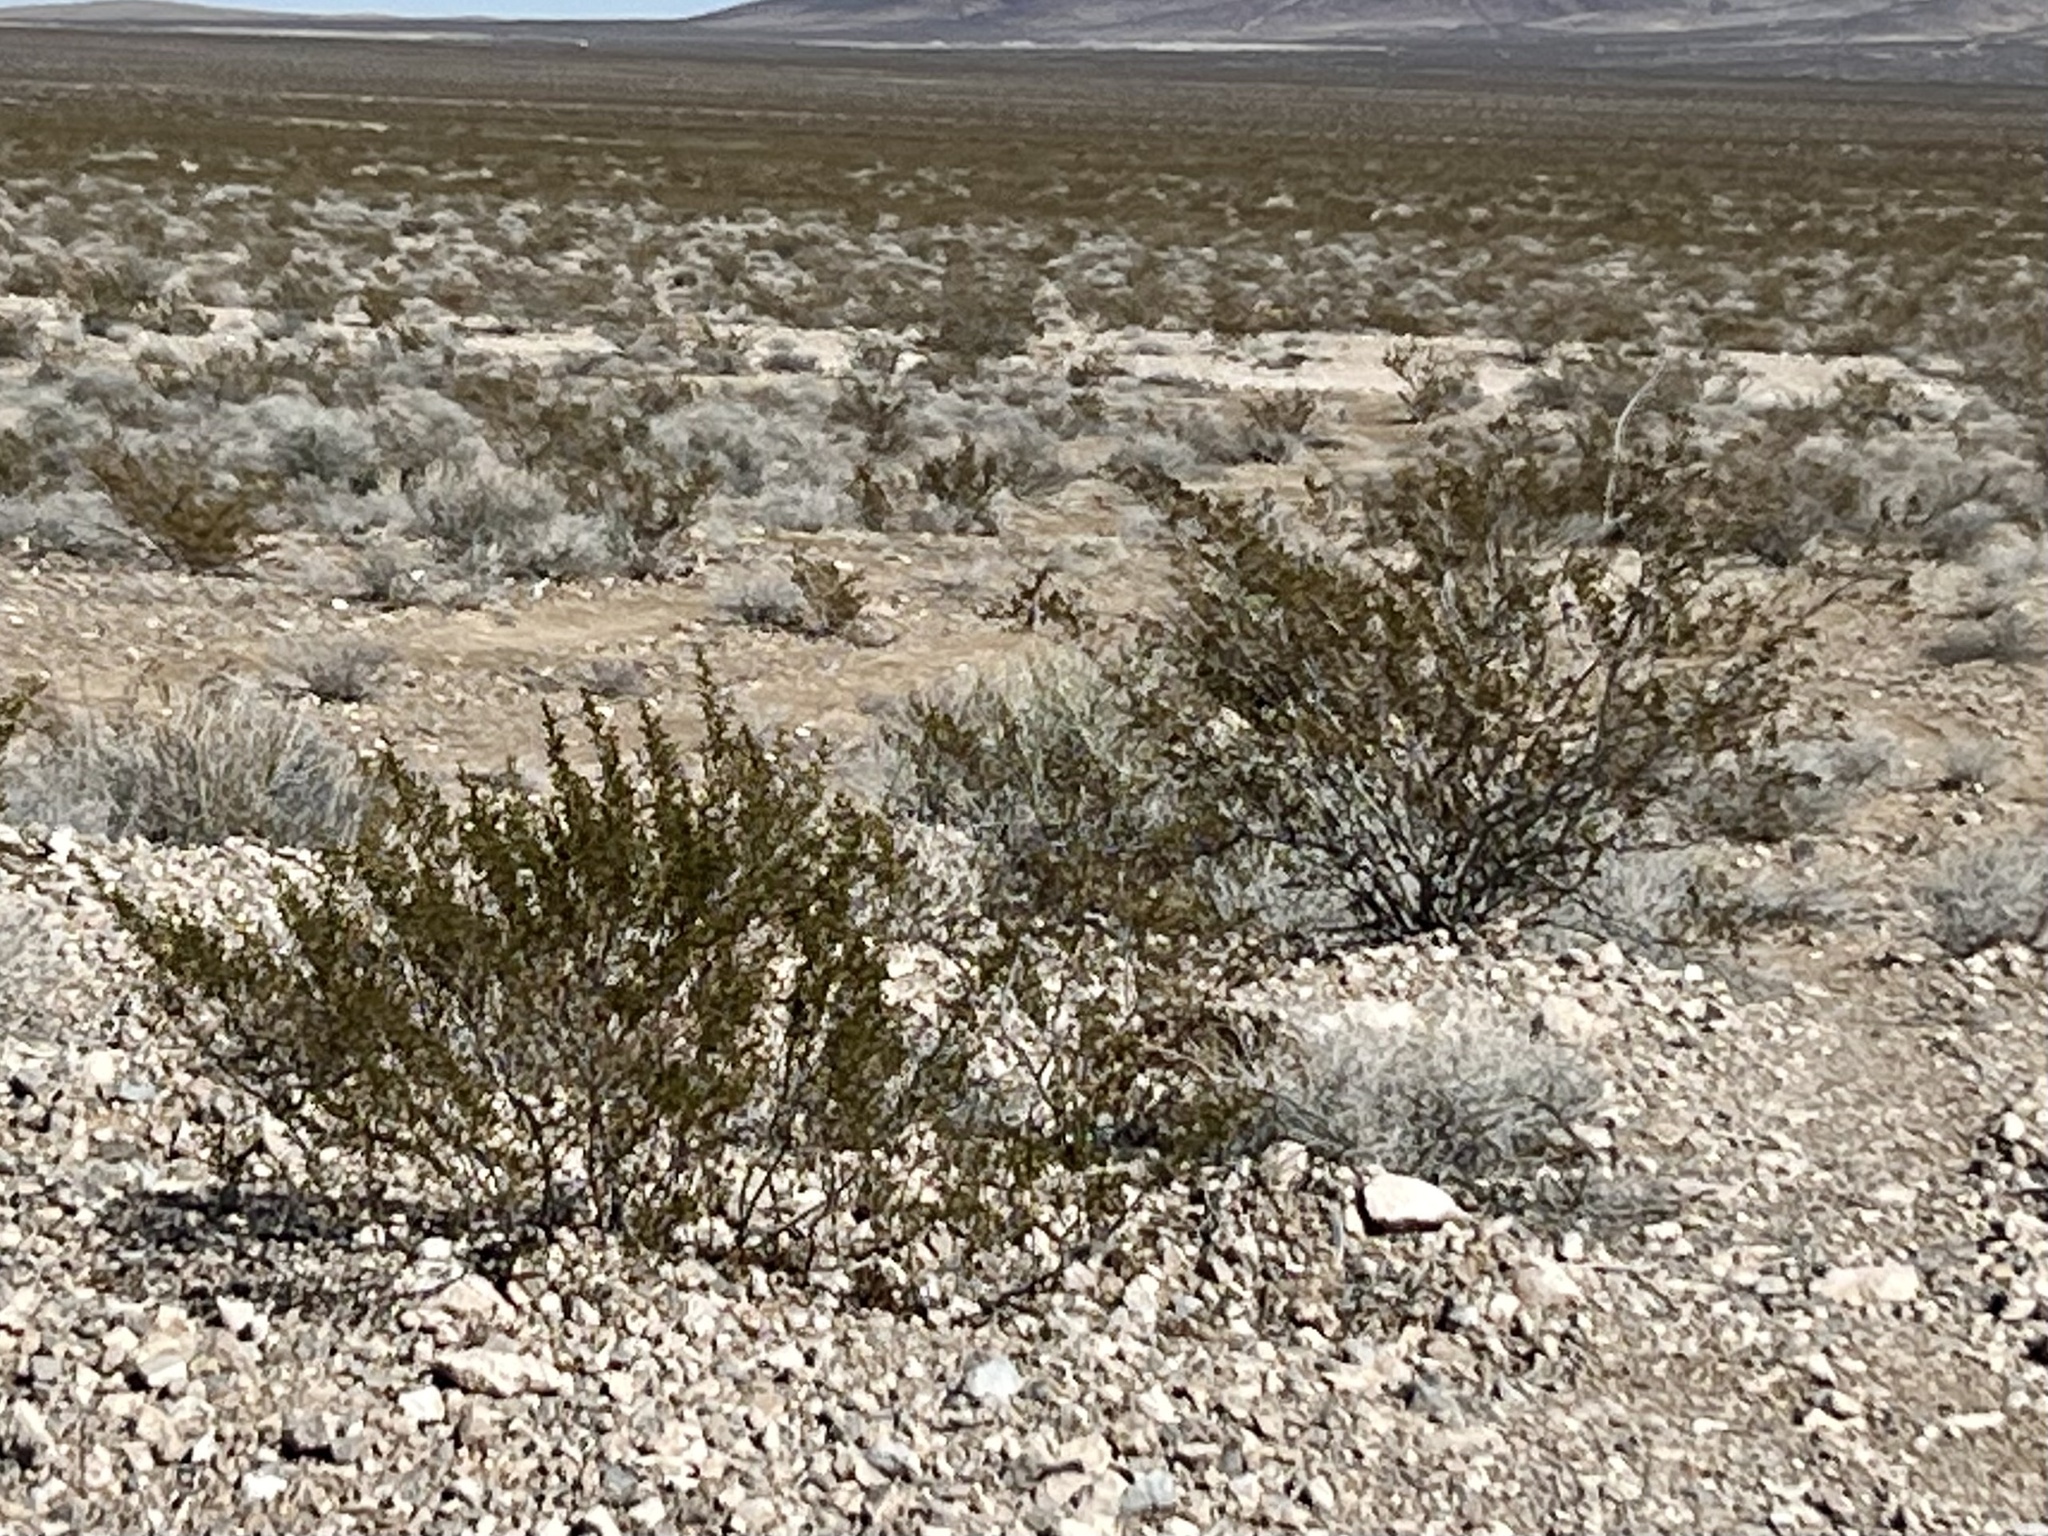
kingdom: Plantae
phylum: Tracheophyta
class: Magnoliopsida
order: Zygophyllales
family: Zygophyllaceae
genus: Larrea
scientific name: Larrea tridentata
